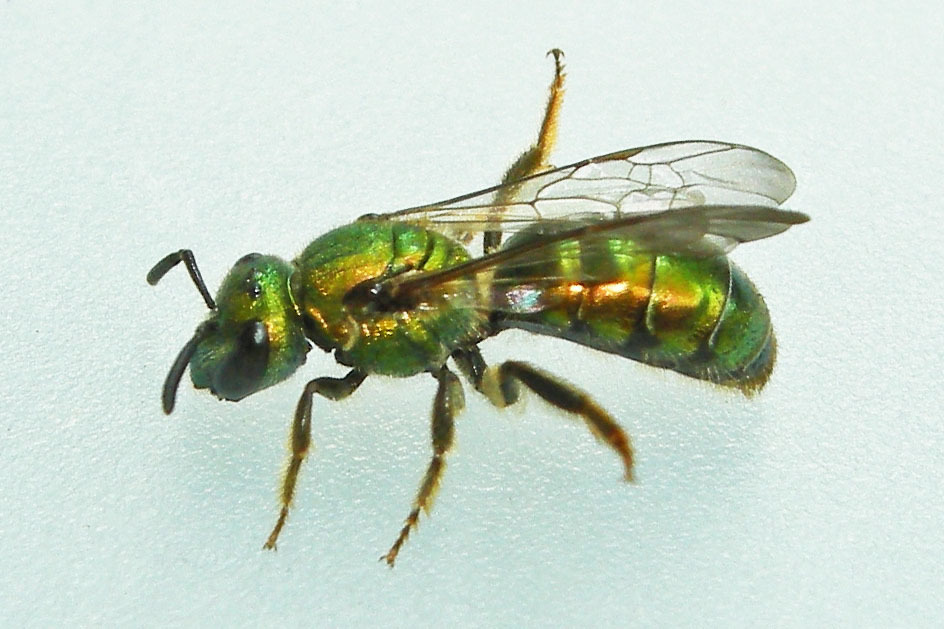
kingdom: Animalia
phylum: Arthropoda
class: Insecta
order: Hymenoptera
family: Halictidae
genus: Augochlora
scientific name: Augochlora pura
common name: Pure green sweat bee
